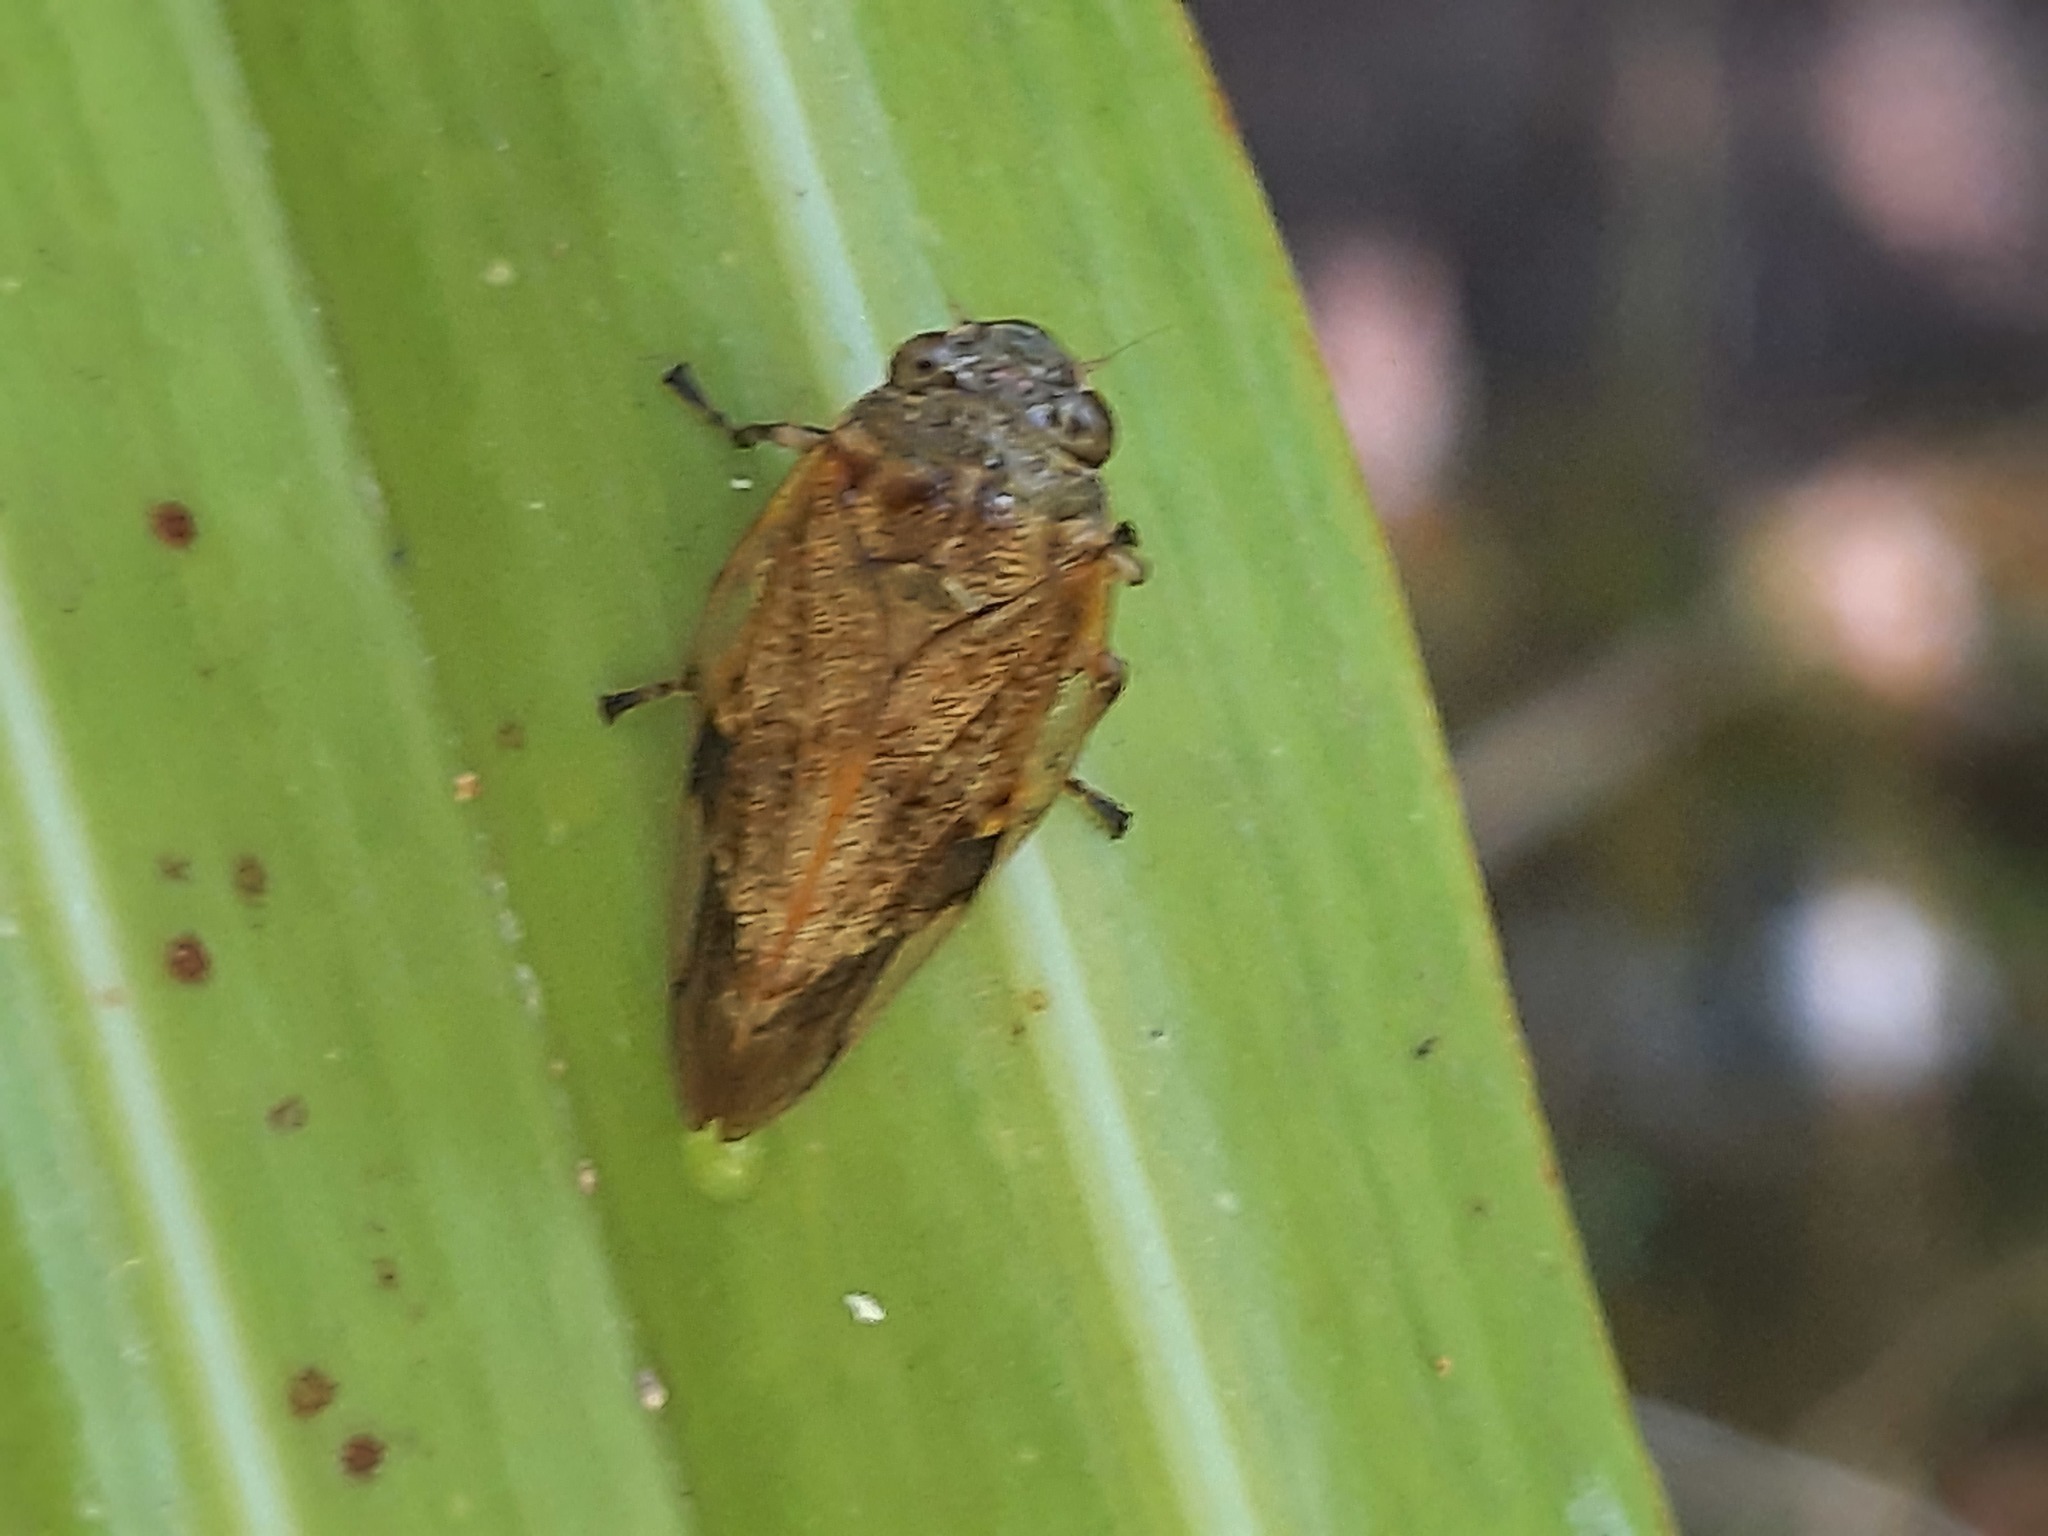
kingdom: Animalia
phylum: Arthropoda
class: Insecta
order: Hemiptera
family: Aphrophoridae
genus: Pseudaphronella
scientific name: Pseudaphronella jactator
